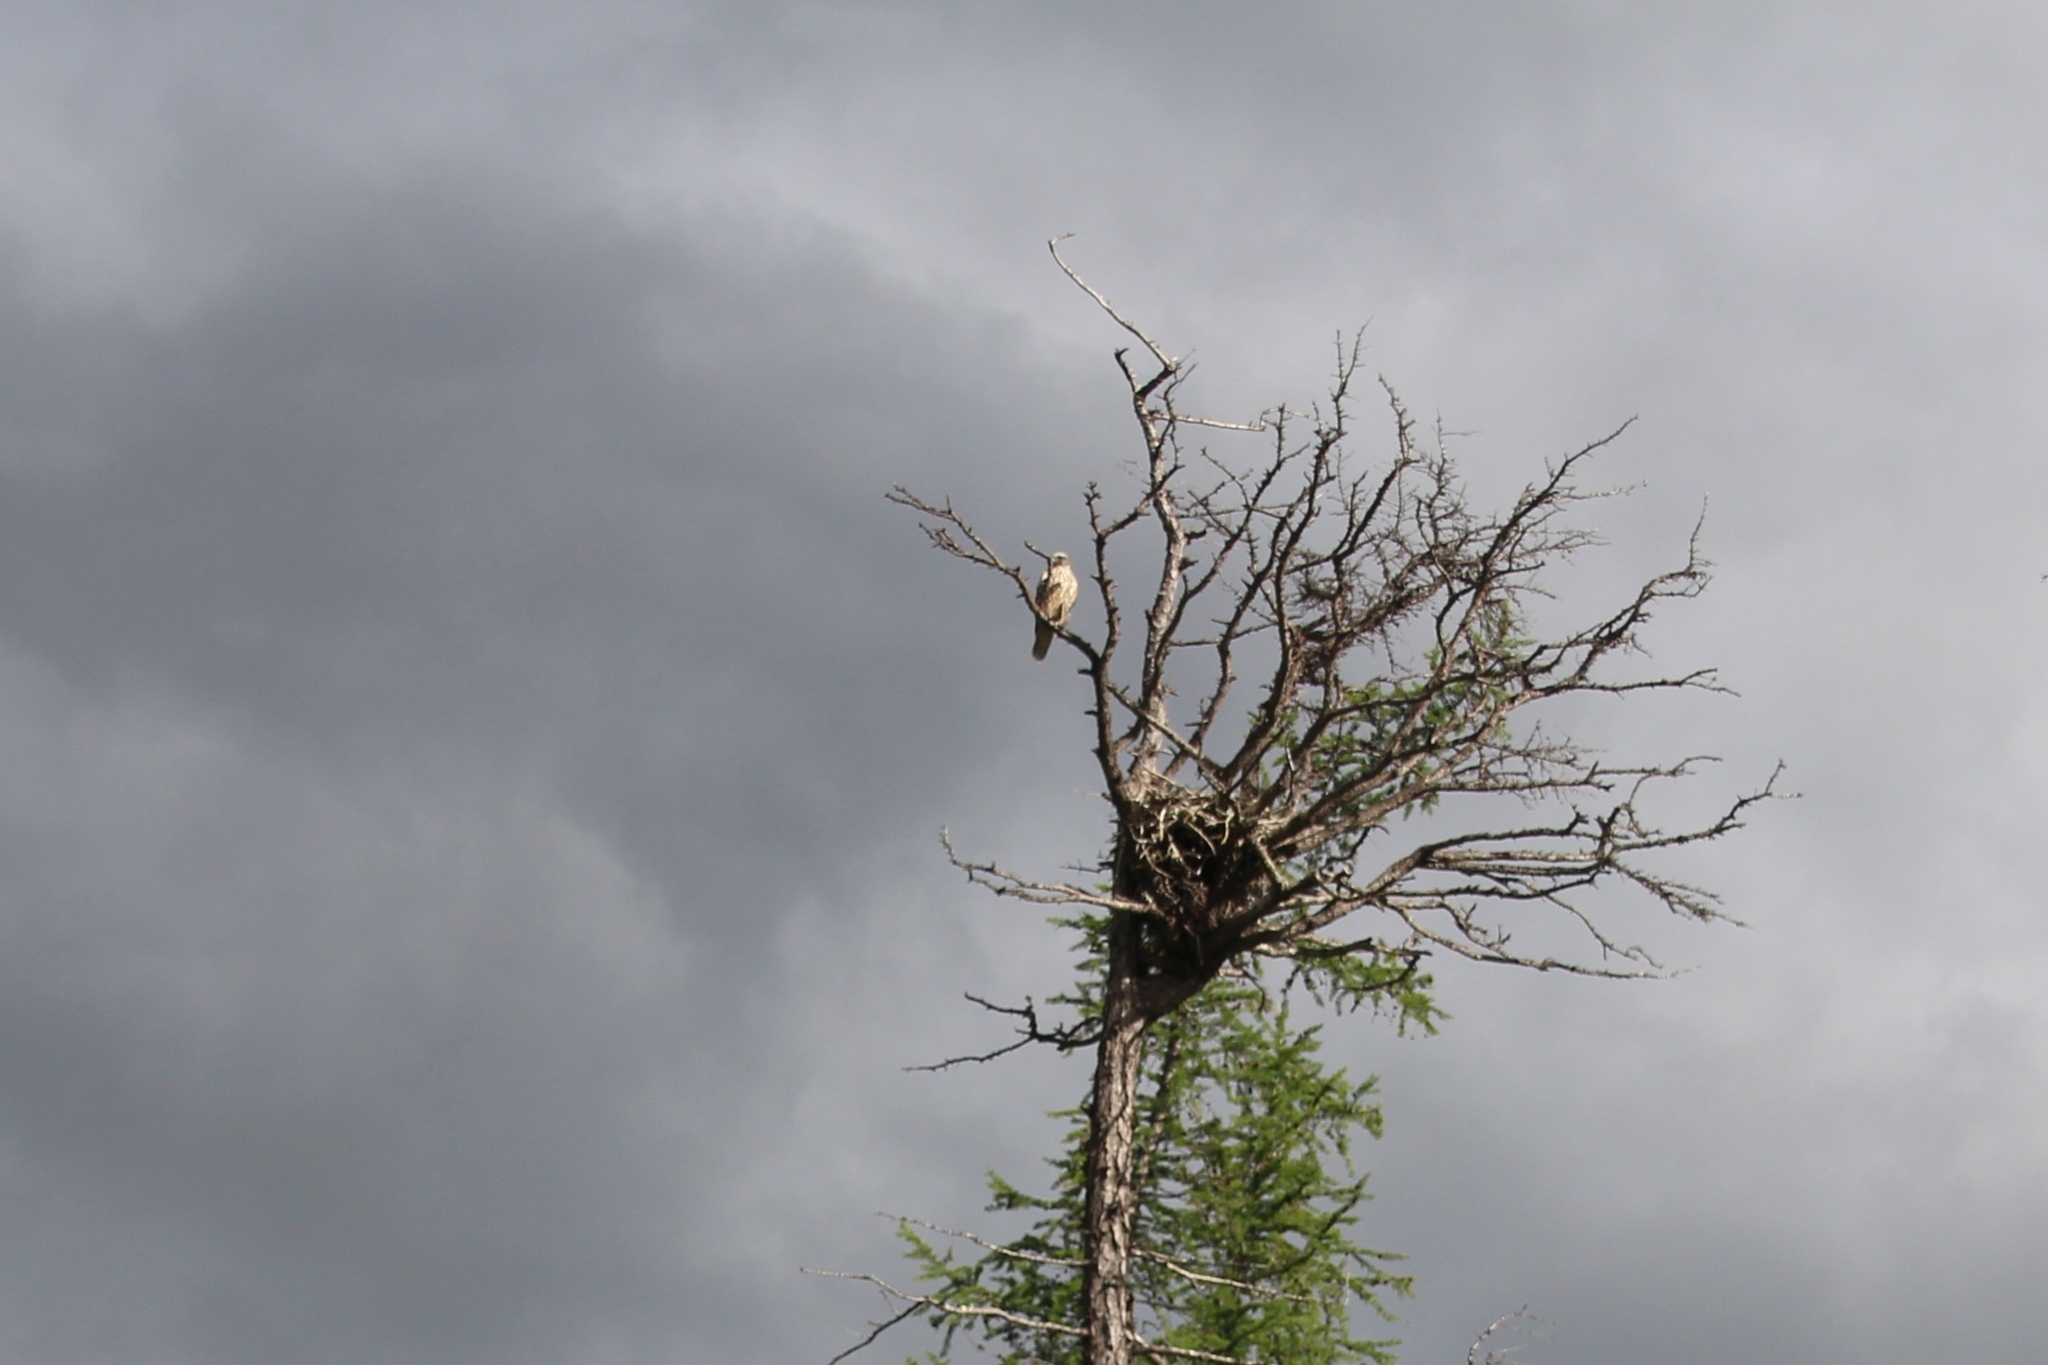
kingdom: Animalia
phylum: Chordata
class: Aves
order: Falconiformes
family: Falconidae
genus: Falco
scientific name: Falco rusticolus
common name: Gyrfalcon
